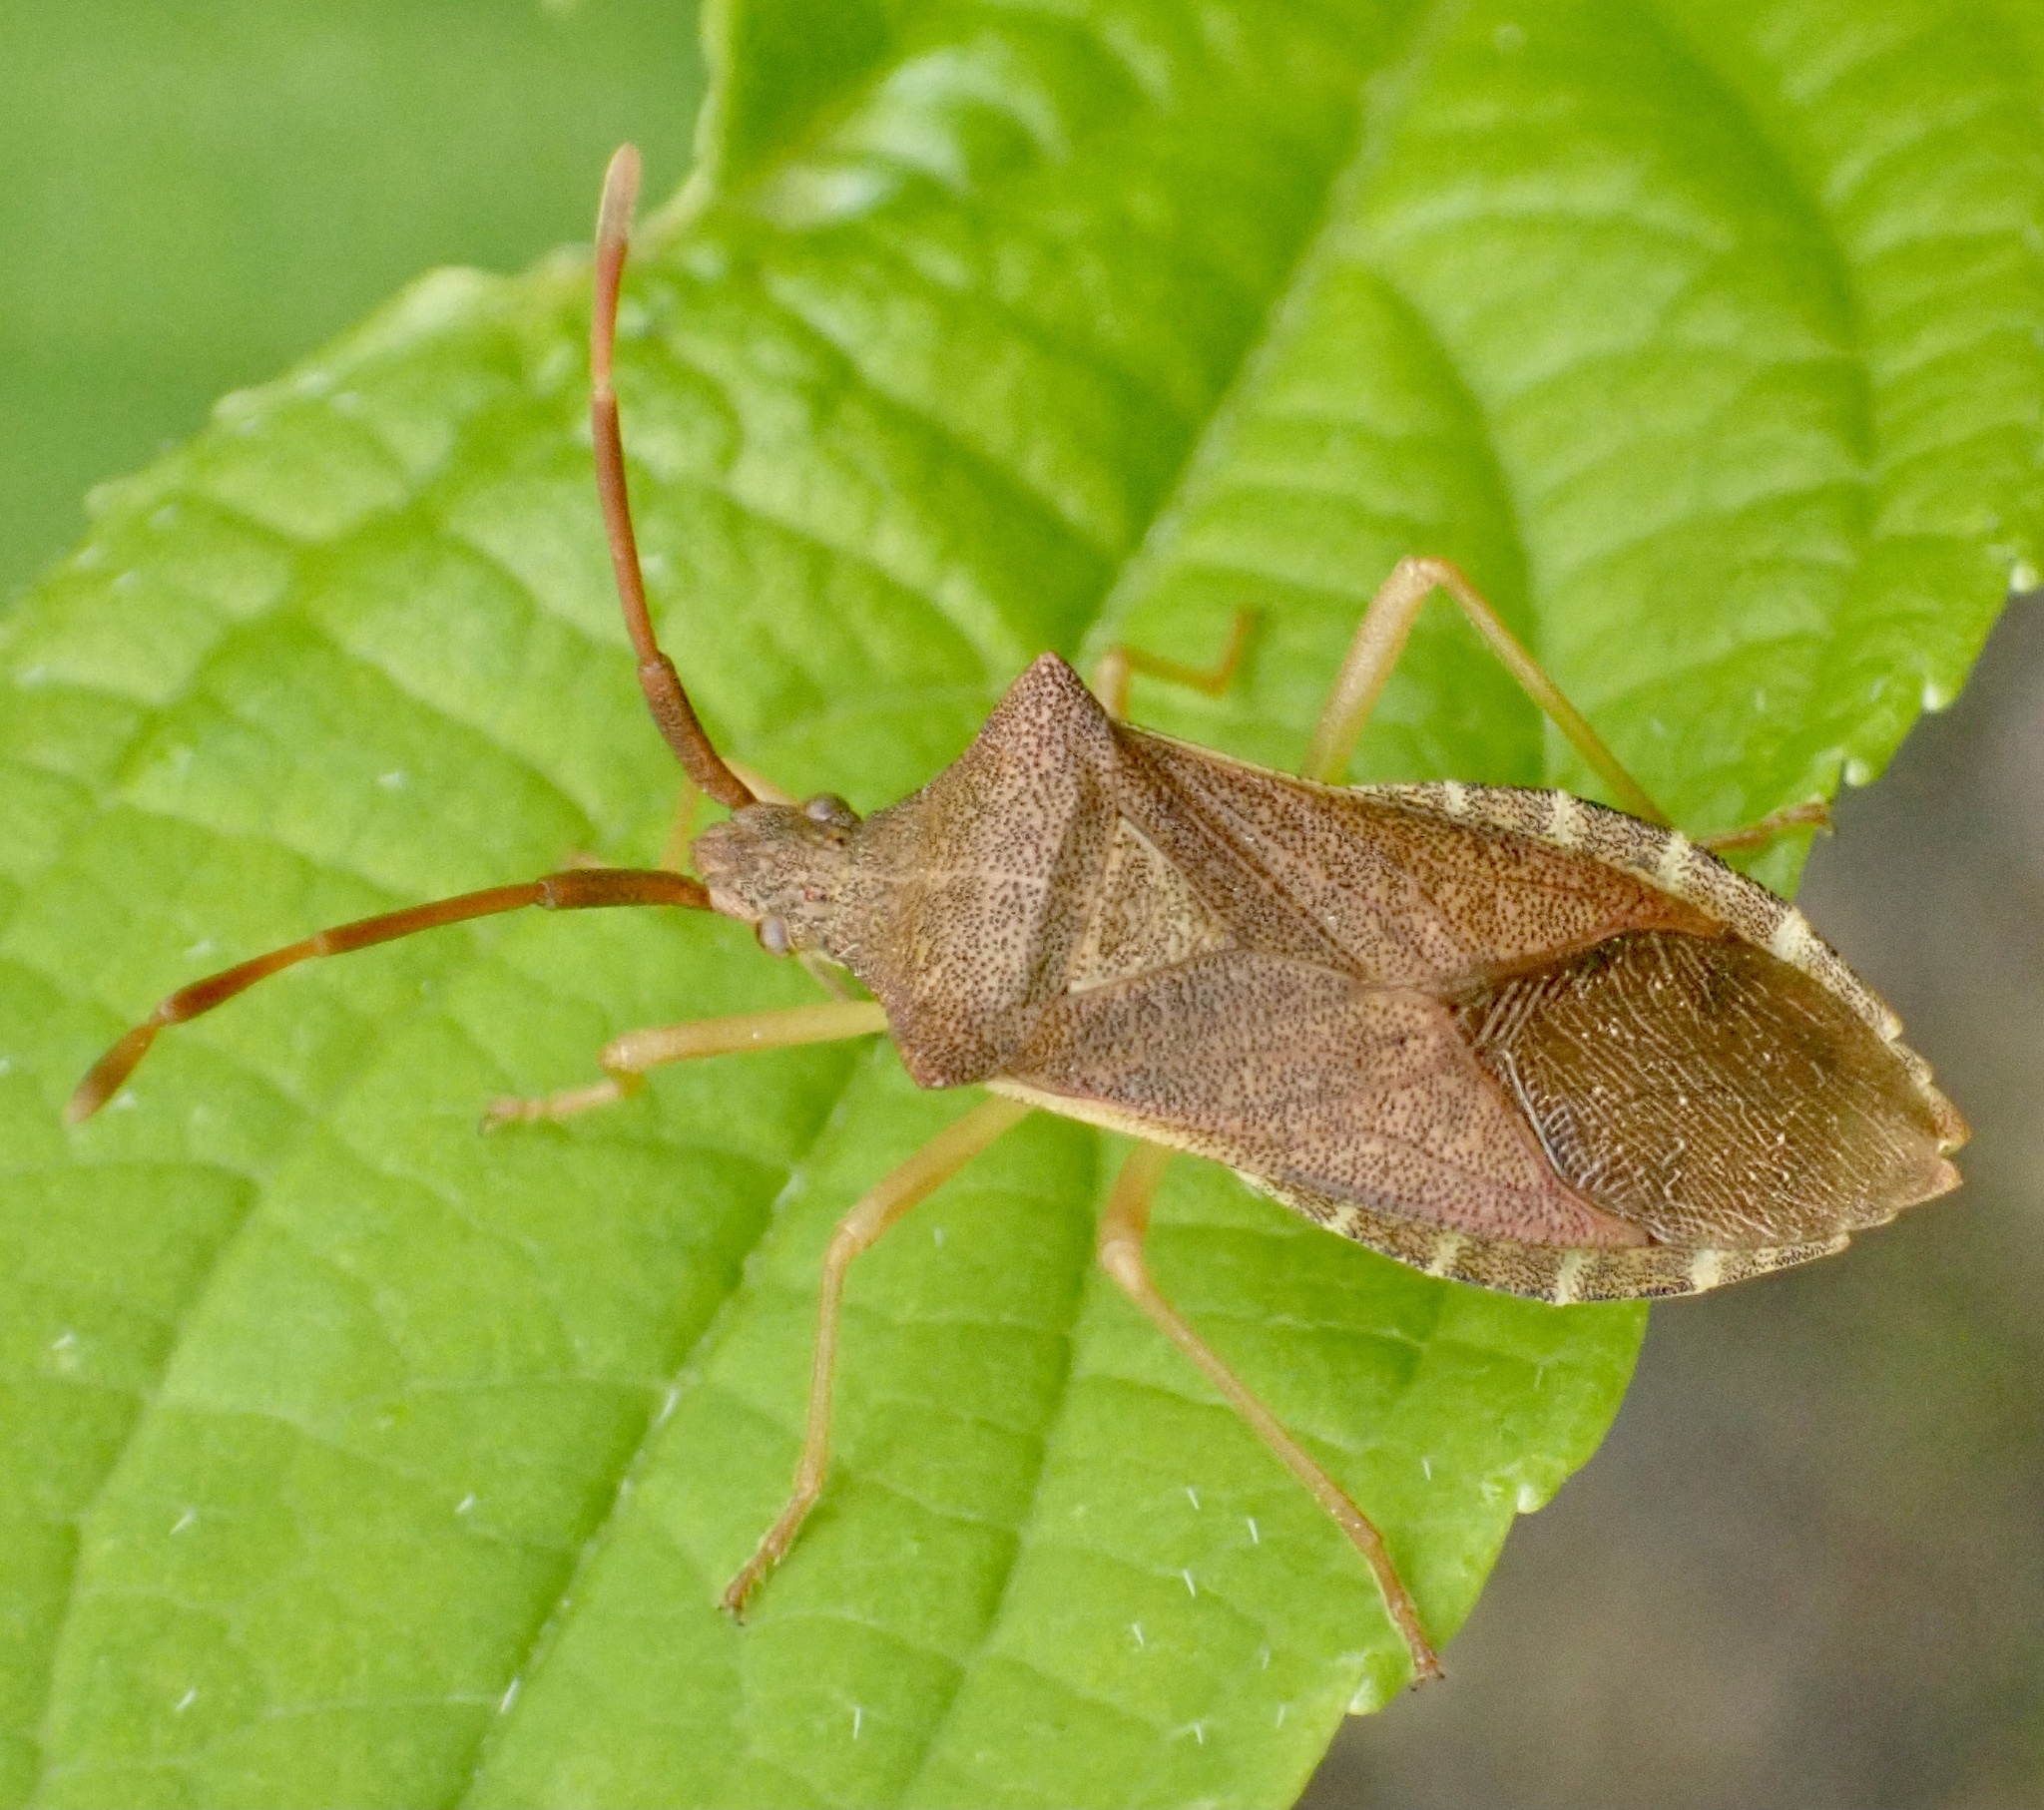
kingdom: Animalia
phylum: Arthropoda
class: Insecta
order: Hemiptera
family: Coreidae
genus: Gonocerus
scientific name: Gonocerus acuteangulatus
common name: Box bug
